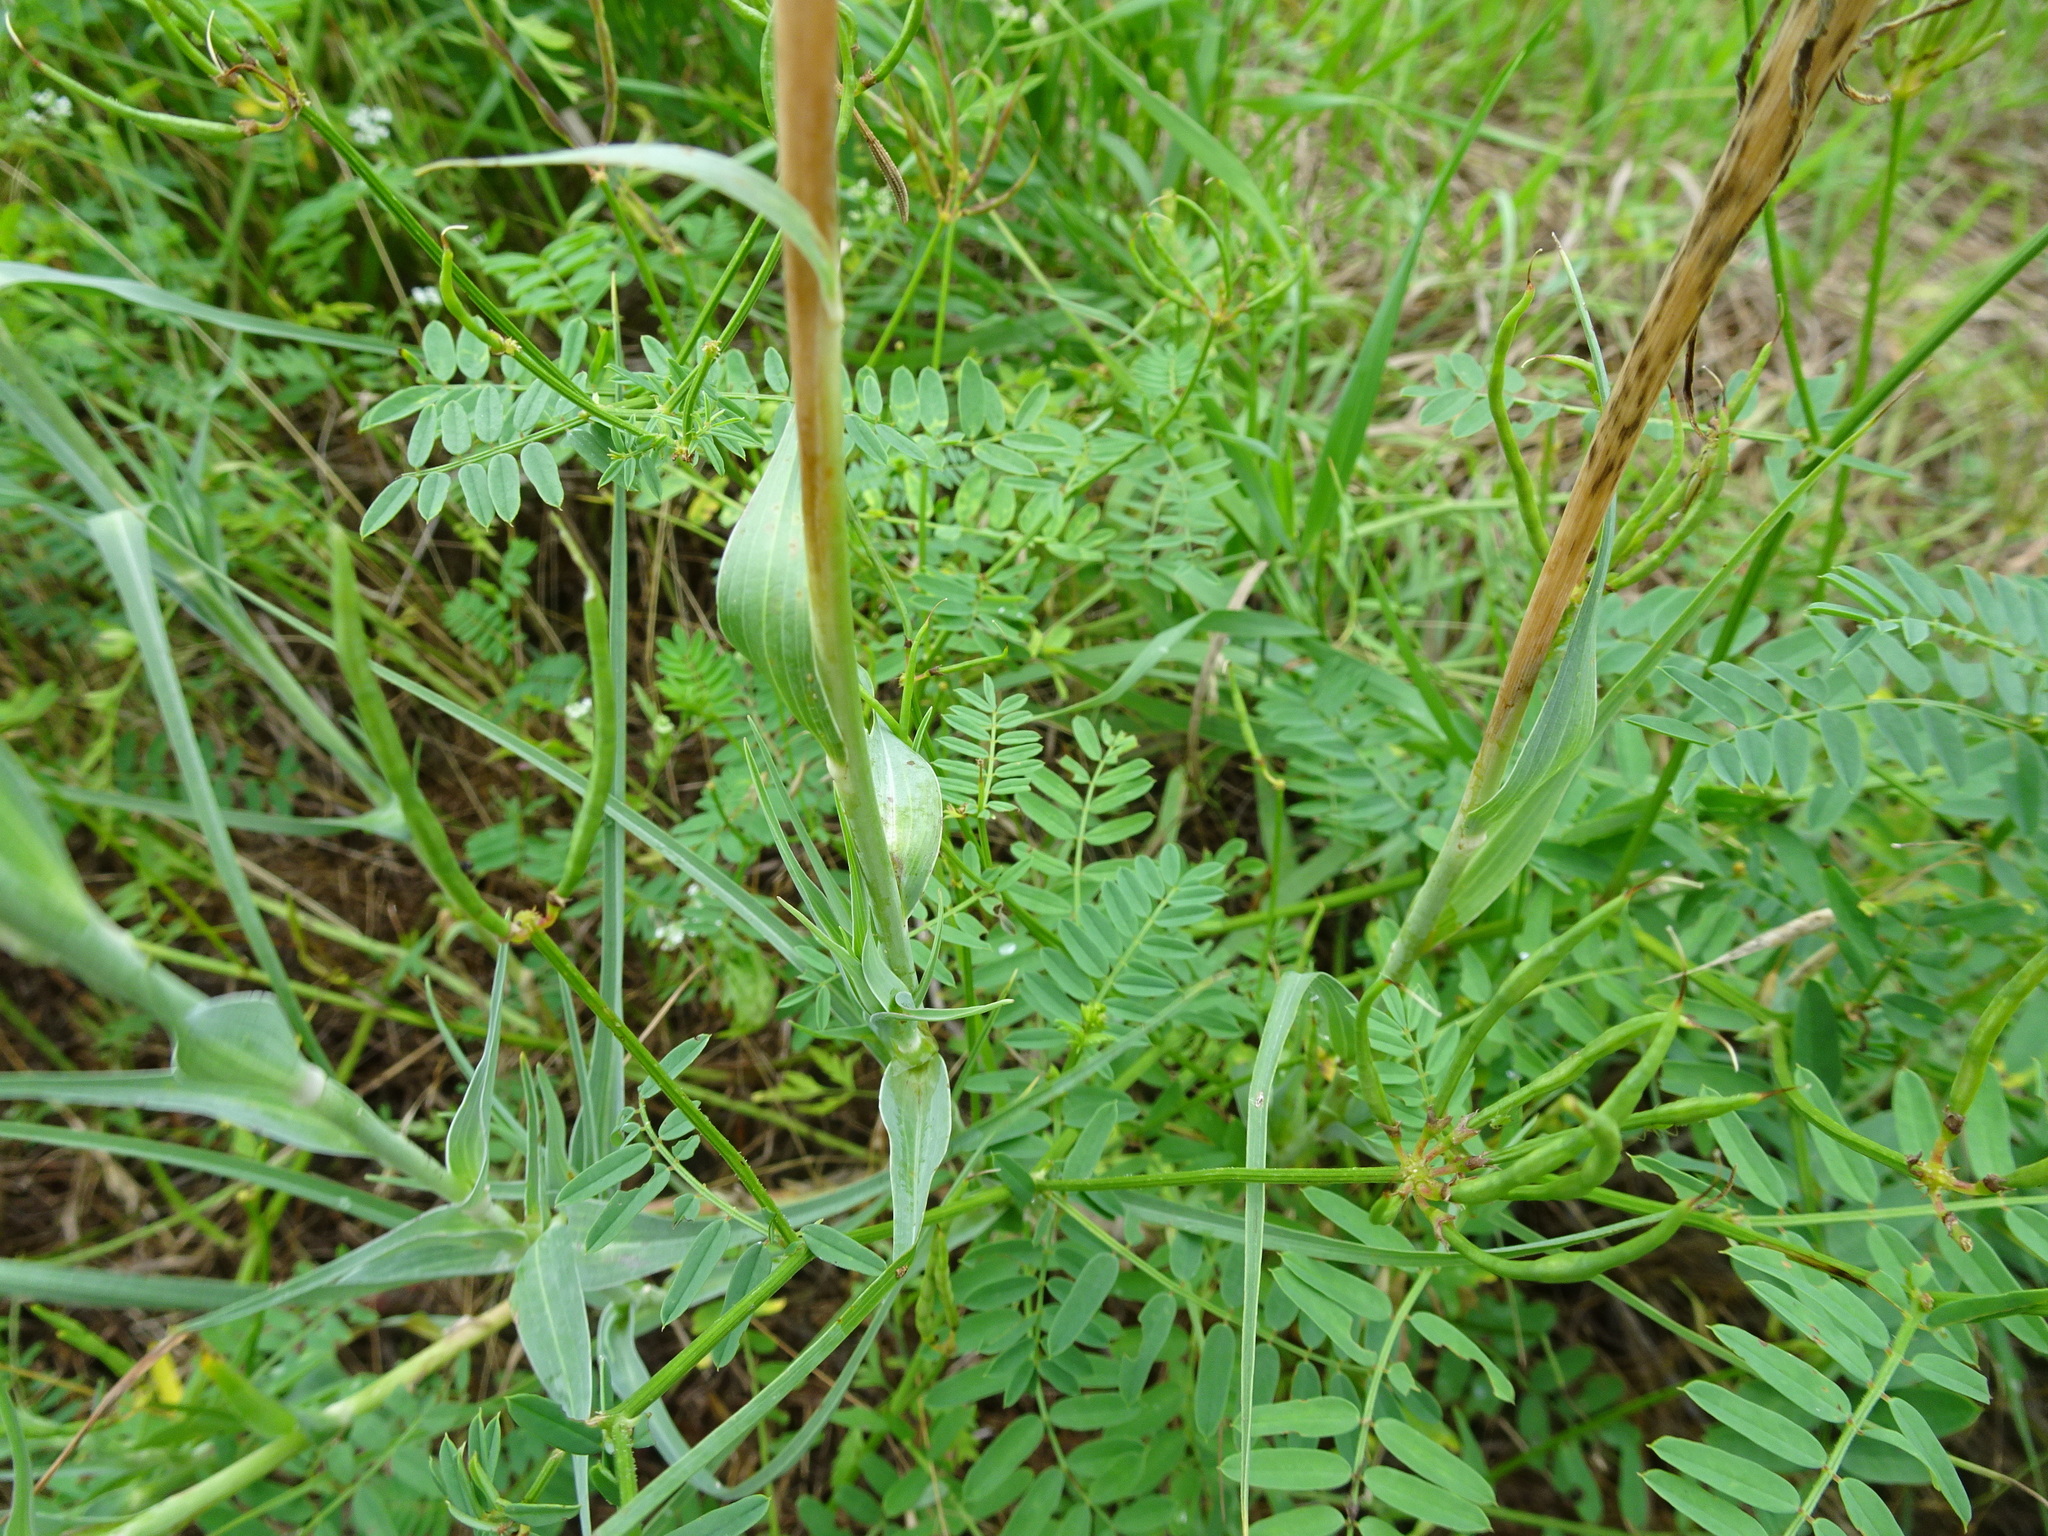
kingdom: Plantae
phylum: Tracheophyta
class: Magnoliopsida
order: Asterales
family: Asteraceae
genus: Tragopogon
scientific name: Tragopogon dubius
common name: Yellow salsify
